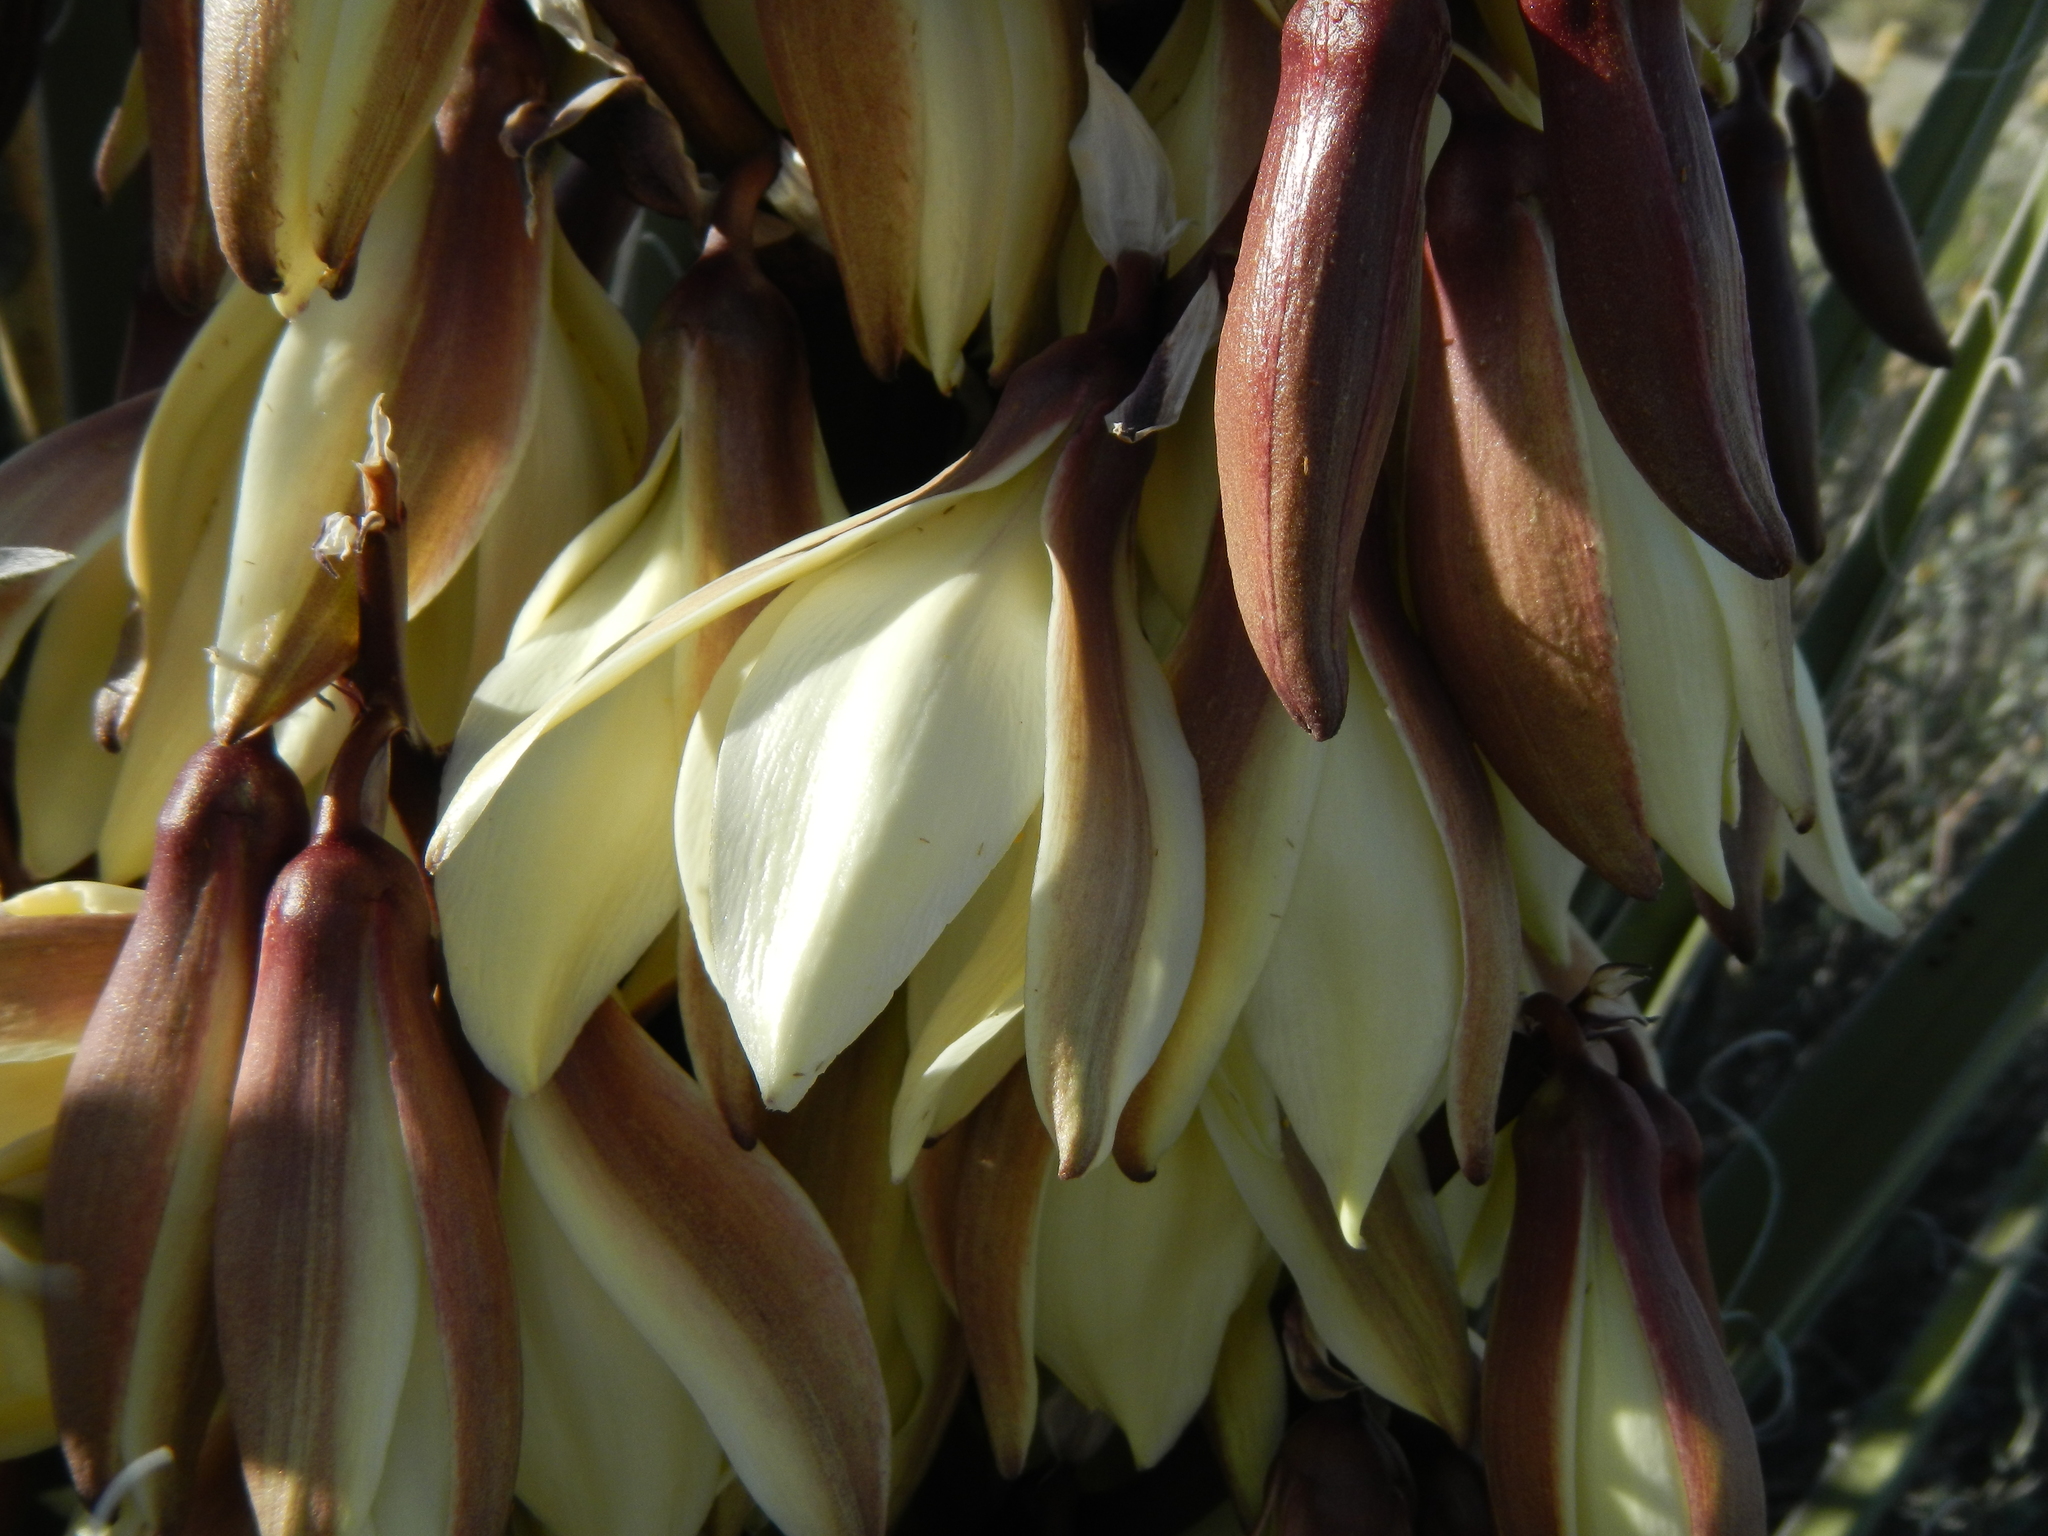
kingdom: Plantae
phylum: Tracheophyta
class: Liliopsida
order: Asparagales
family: Asparagaceae
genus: Yucca
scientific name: Yucca baccata
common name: Banana yucca
